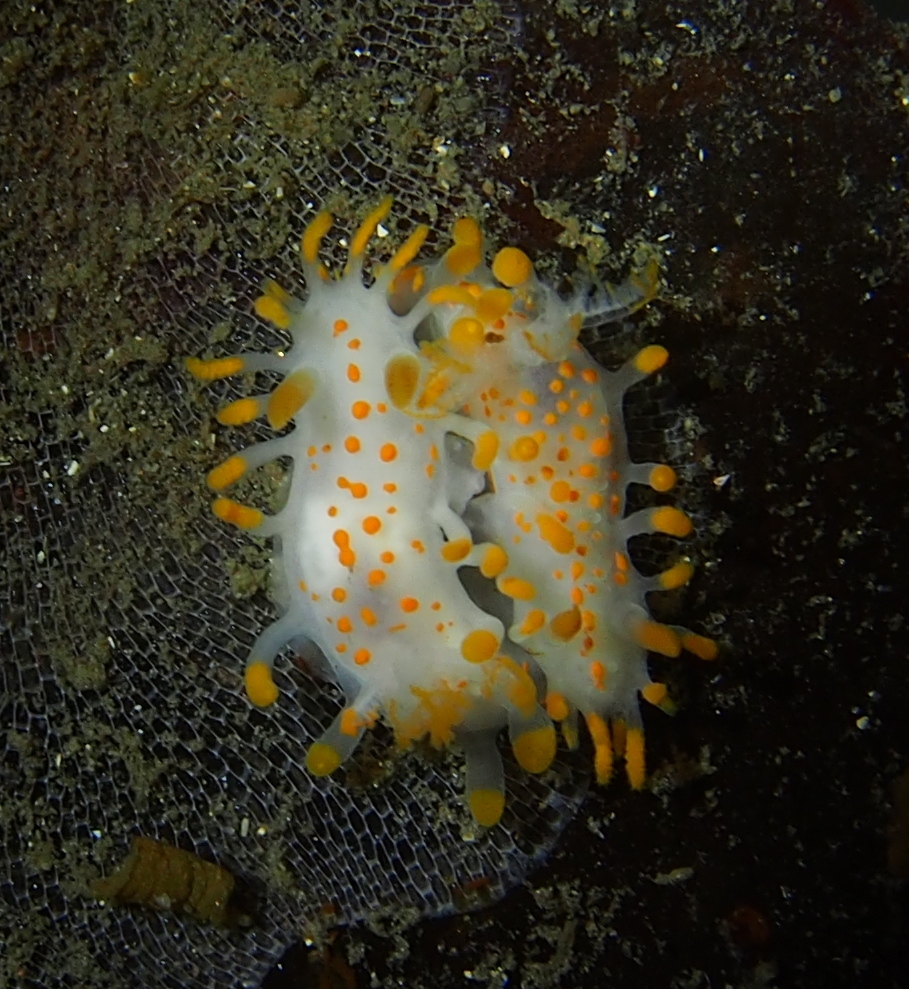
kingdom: Animalia
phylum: Mollusca
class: Gastropoda
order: Nudibranchia
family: Polyceridae
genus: Limacia
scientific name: Limacia clavigera
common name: Orange-clubbed sea slug
